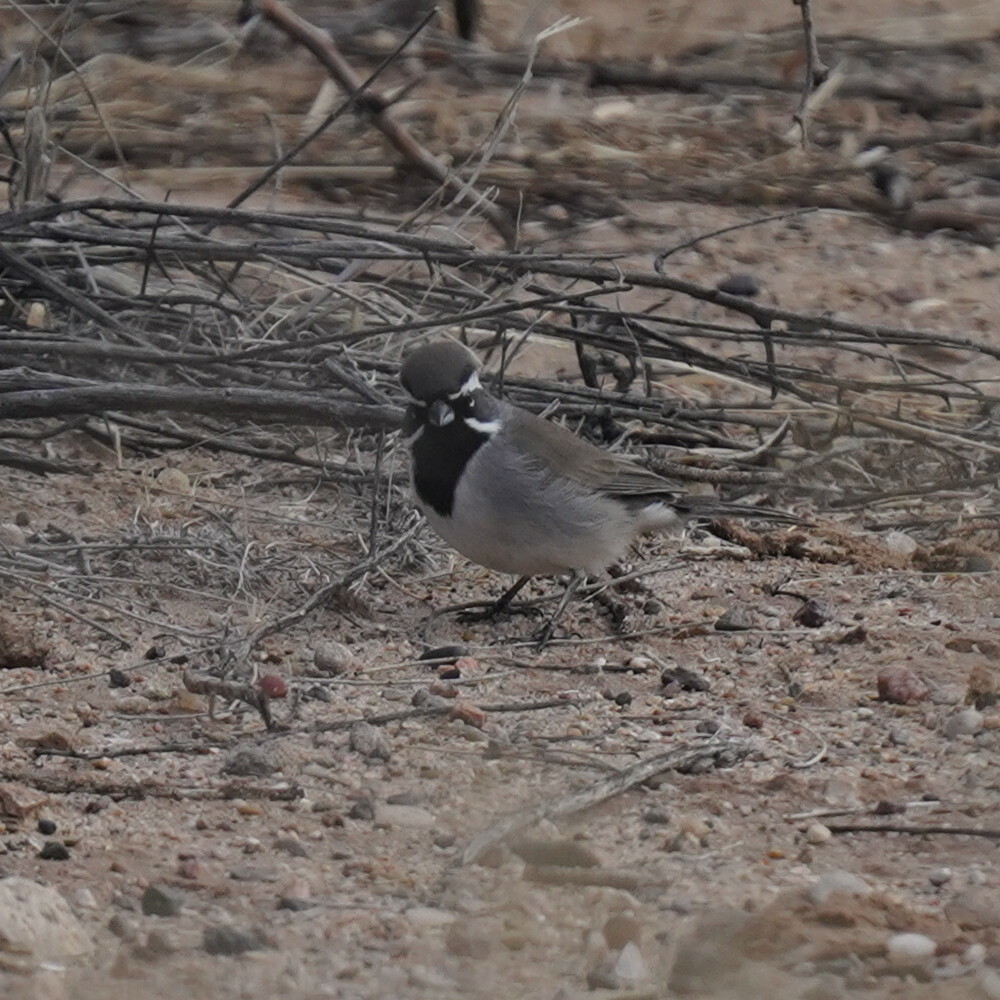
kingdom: Animalia
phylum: Chordata
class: Aves
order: Passeriformes
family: Passerellidae
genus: Amphispiza
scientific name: Amphispiza bilineata
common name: Black-throated sparrow
